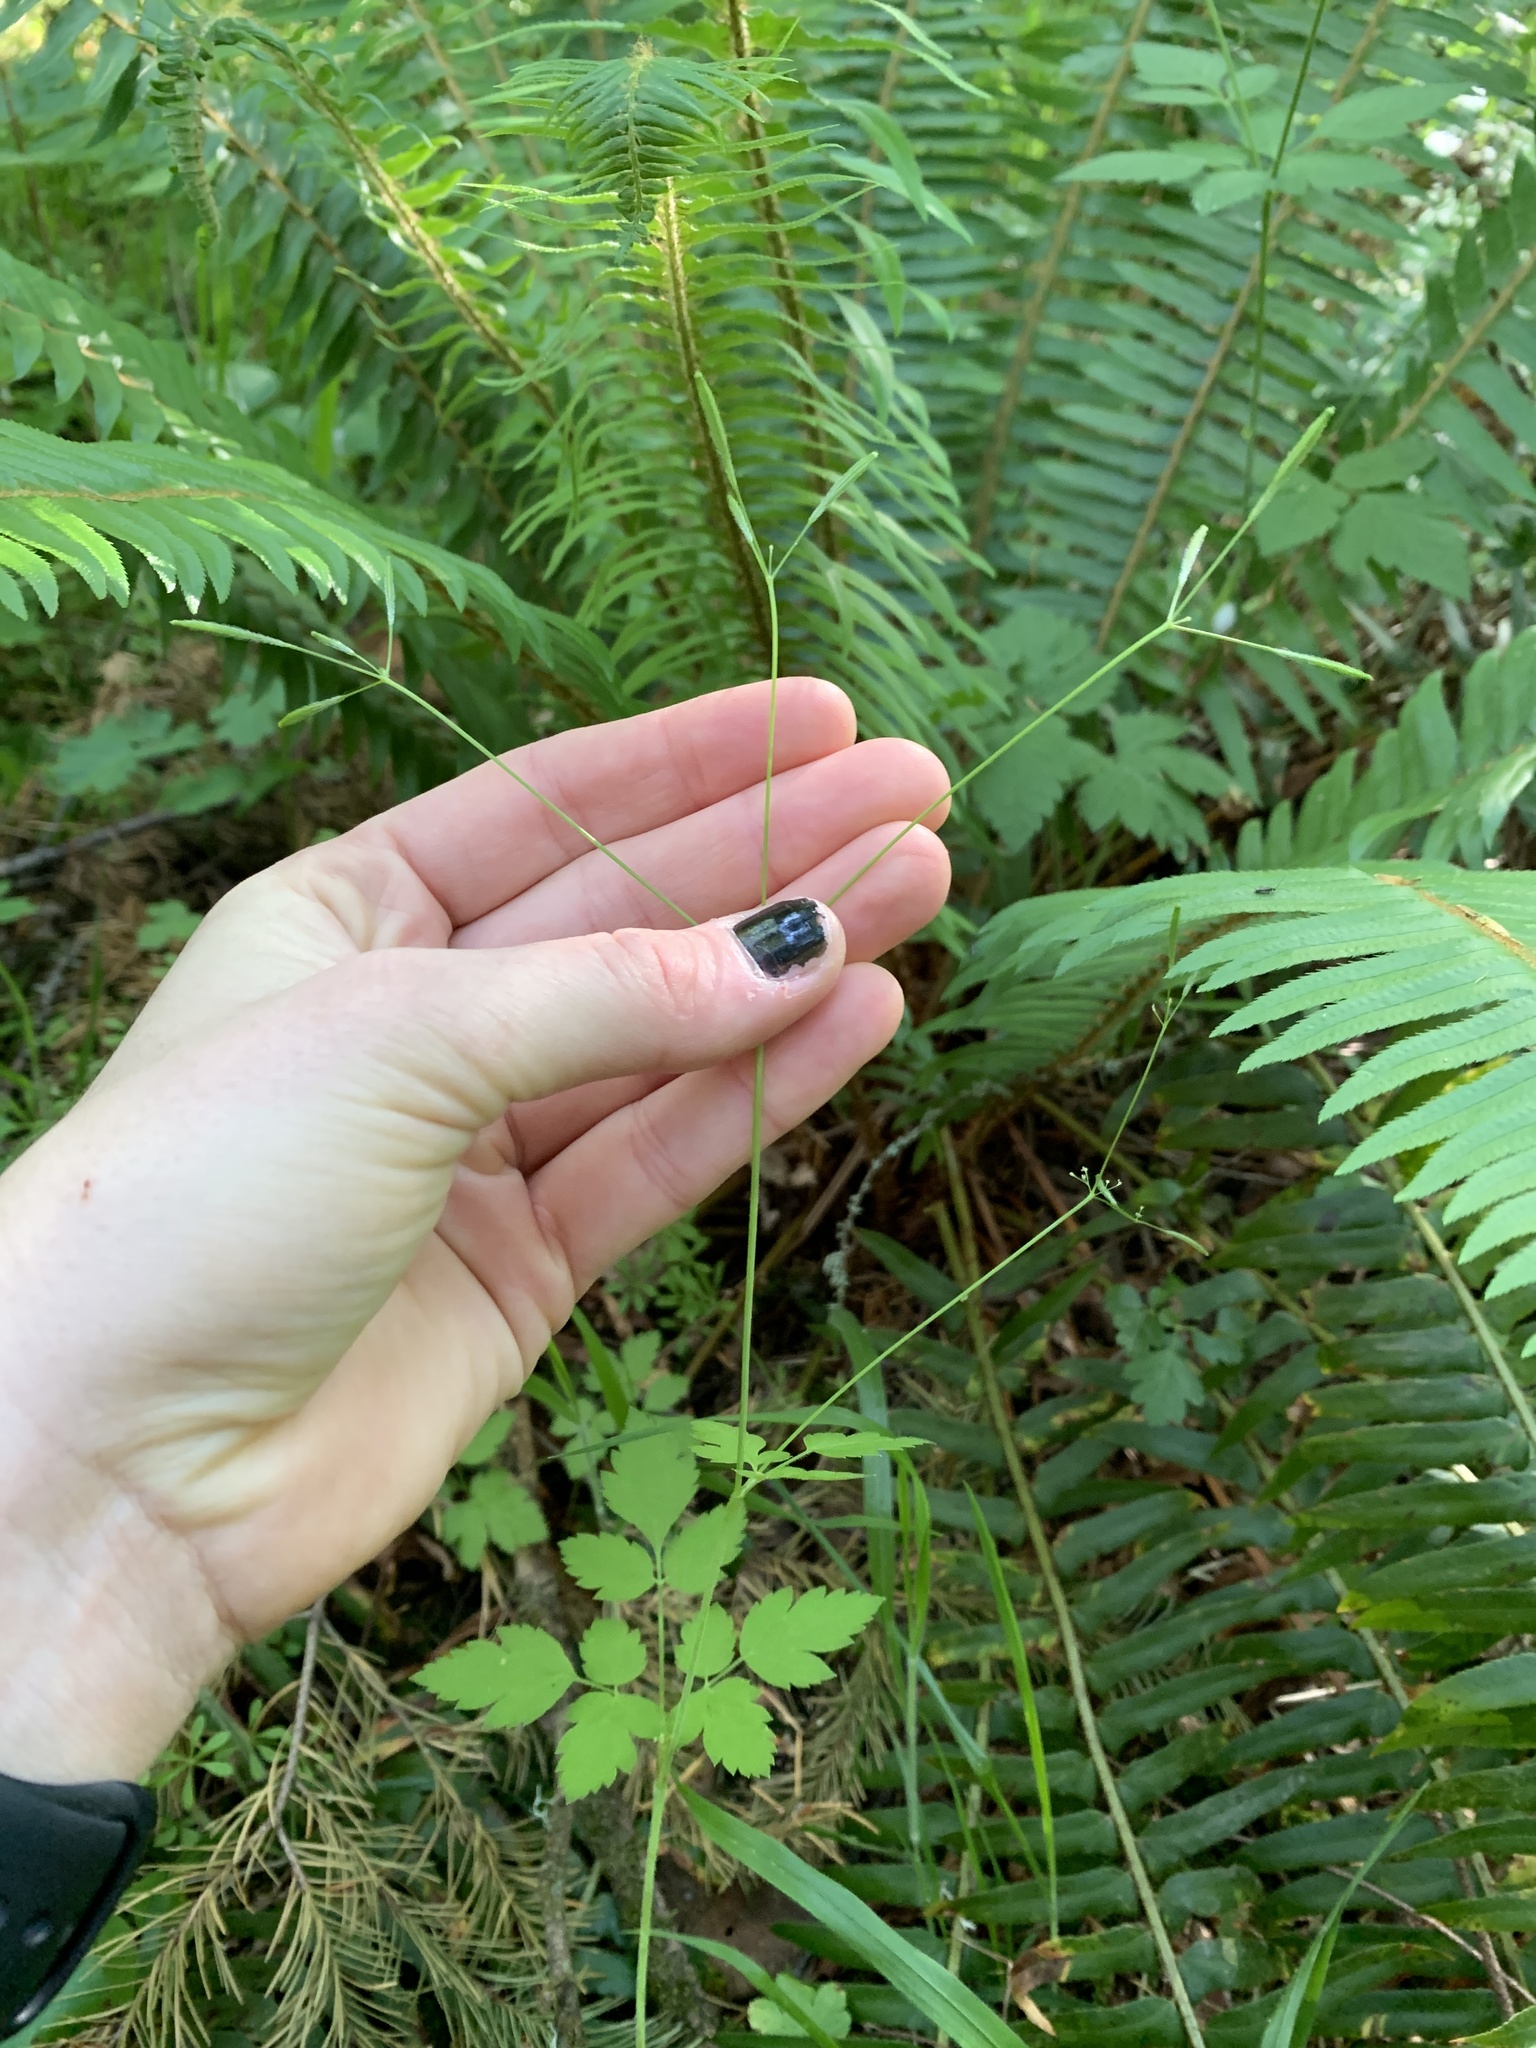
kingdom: Plantae
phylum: Tracheophyta
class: Magnoliopsida
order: Apiales
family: Apiaceae
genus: Osmorhiza
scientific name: Osmorhiza berteroi
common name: Mountain sweet cicely
